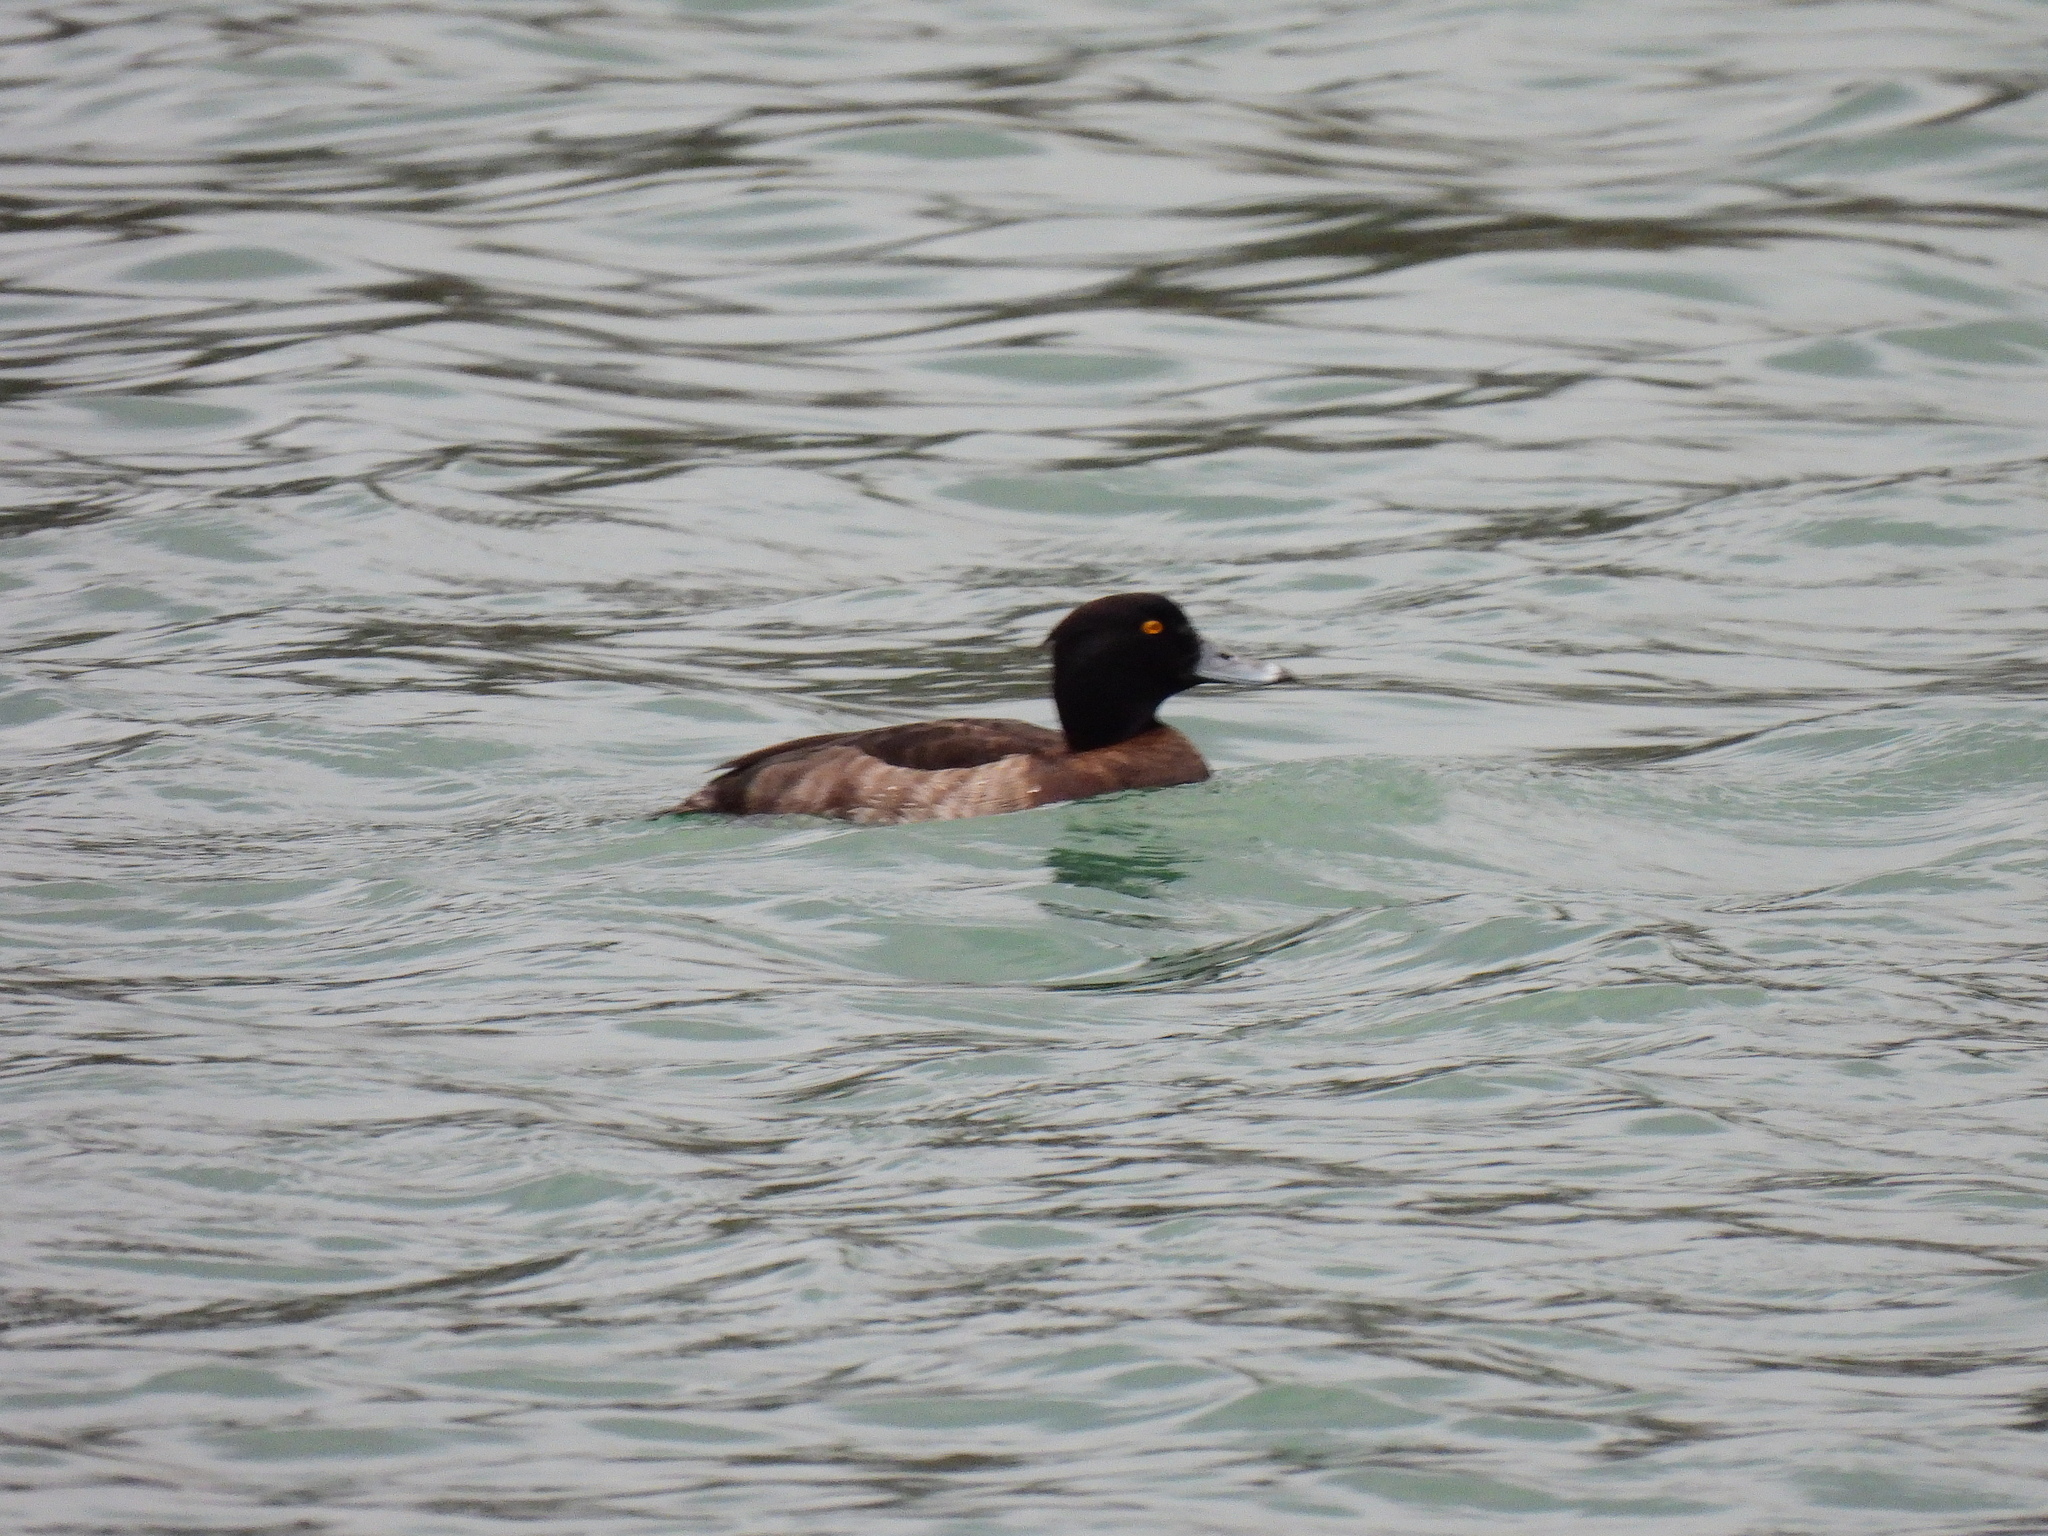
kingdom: Animalia
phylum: Chordata
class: Aves
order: Anseriformes
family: Anatidae
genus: Aythya
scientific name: Aythya fuligula
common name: Tufted duck
